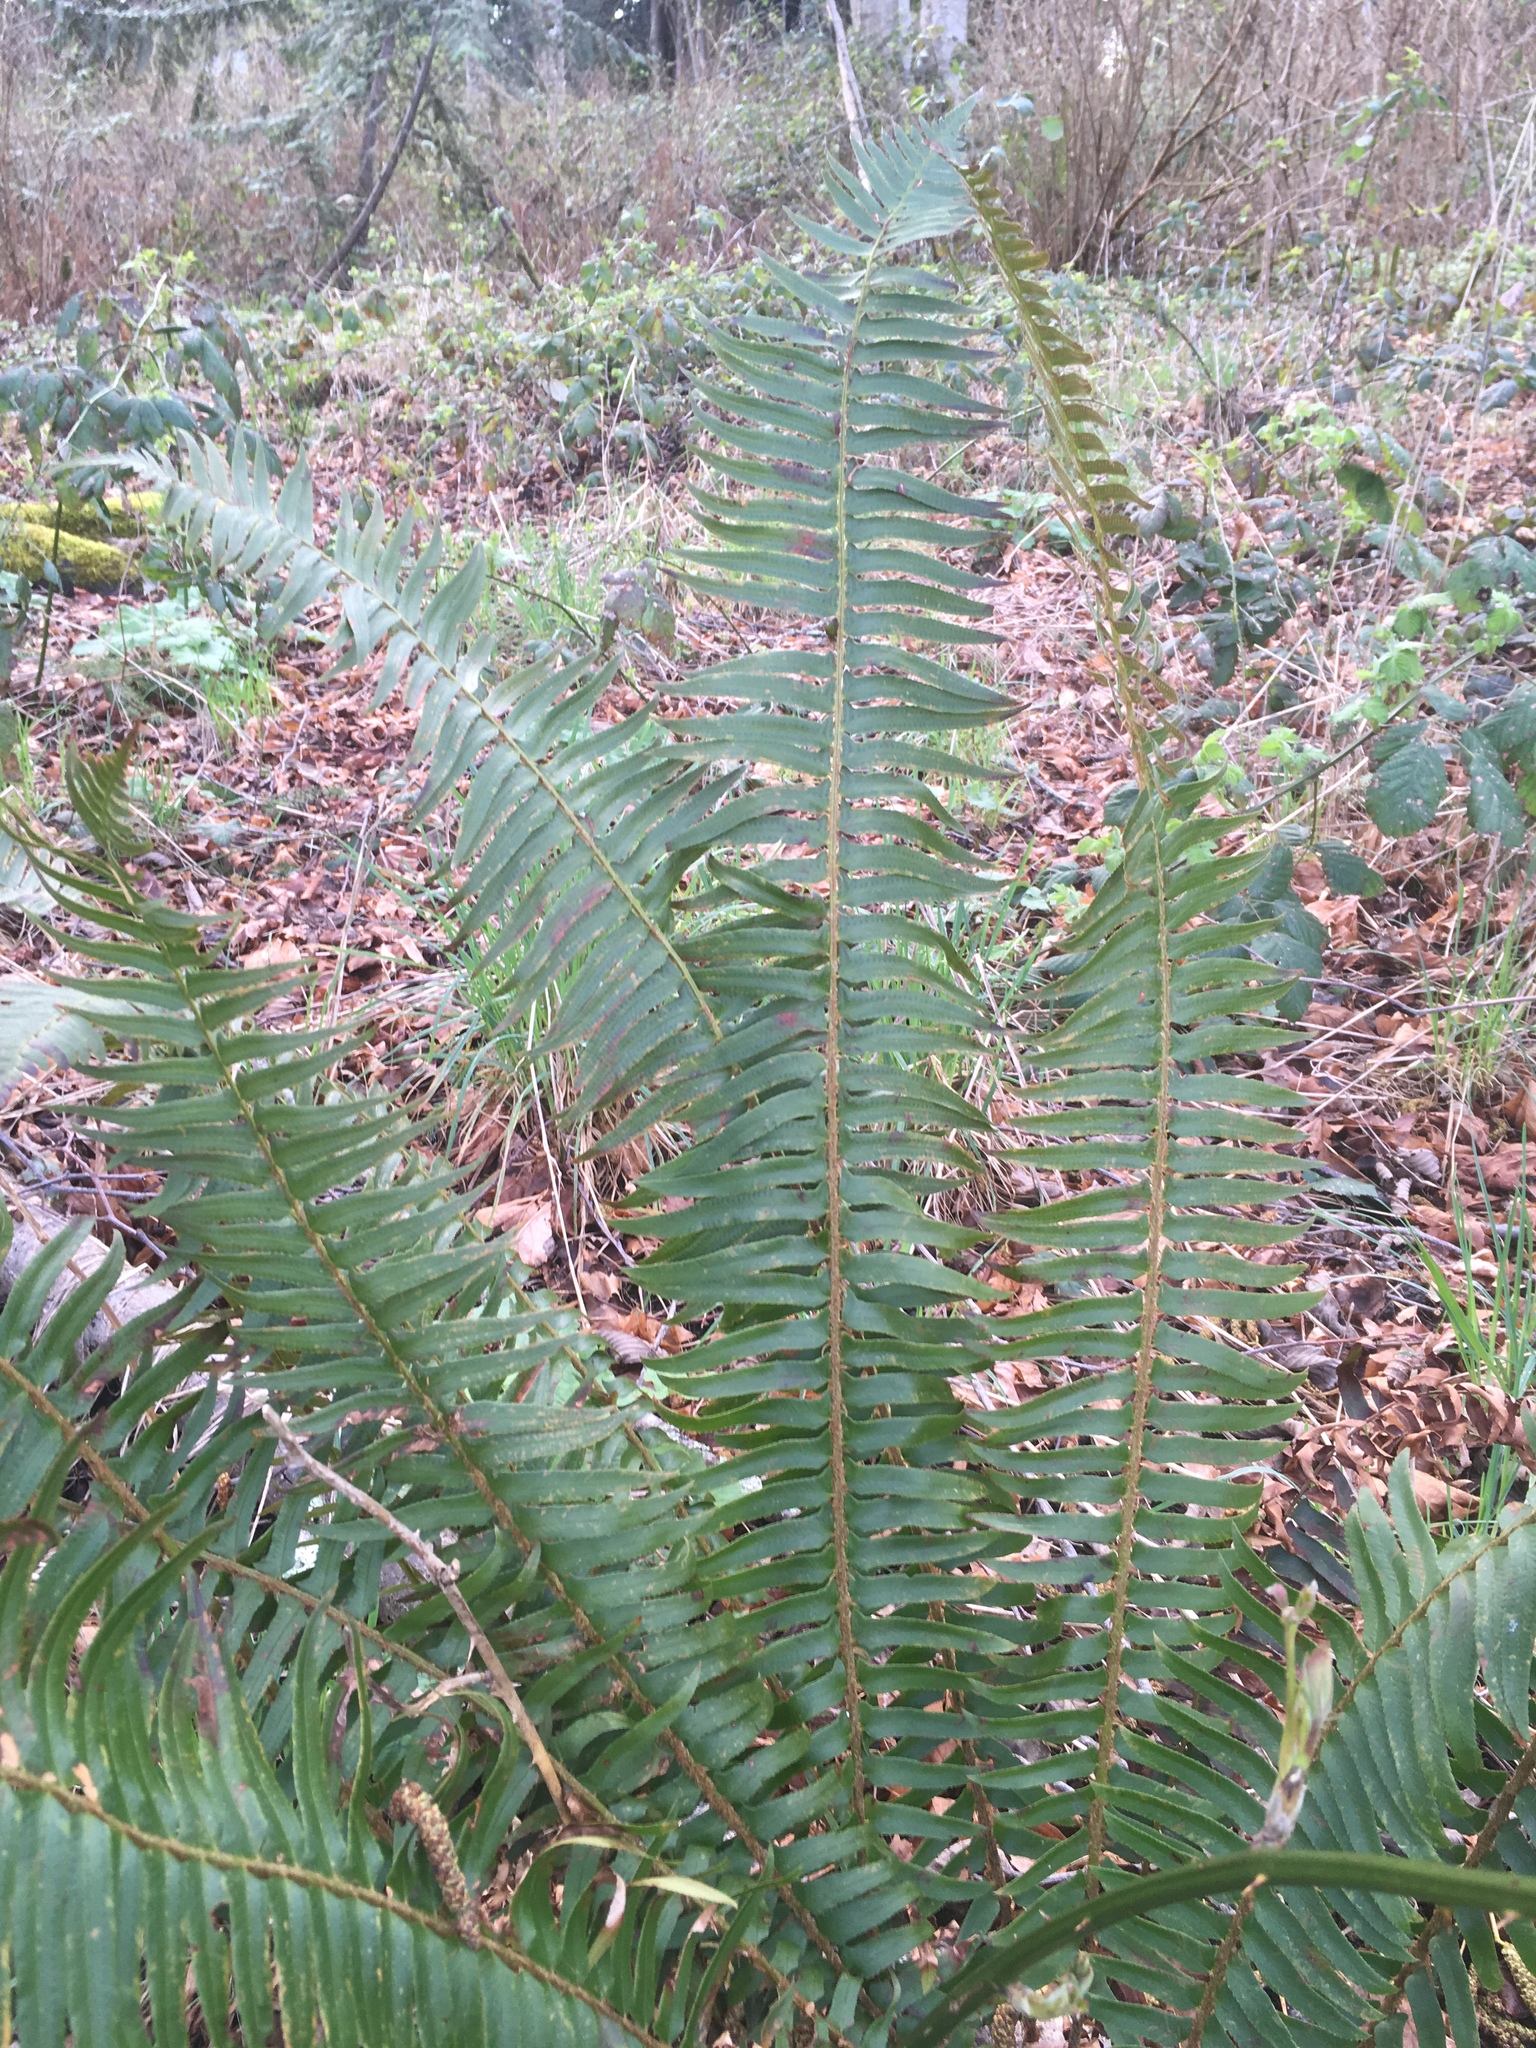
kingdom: Plantae
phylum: Tracheophyta
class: Polypodiopsida
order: Polypodiales
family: Dryopteridaceae
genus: Polystichum
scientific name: Polystichum munitum
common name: Western sword-fern
